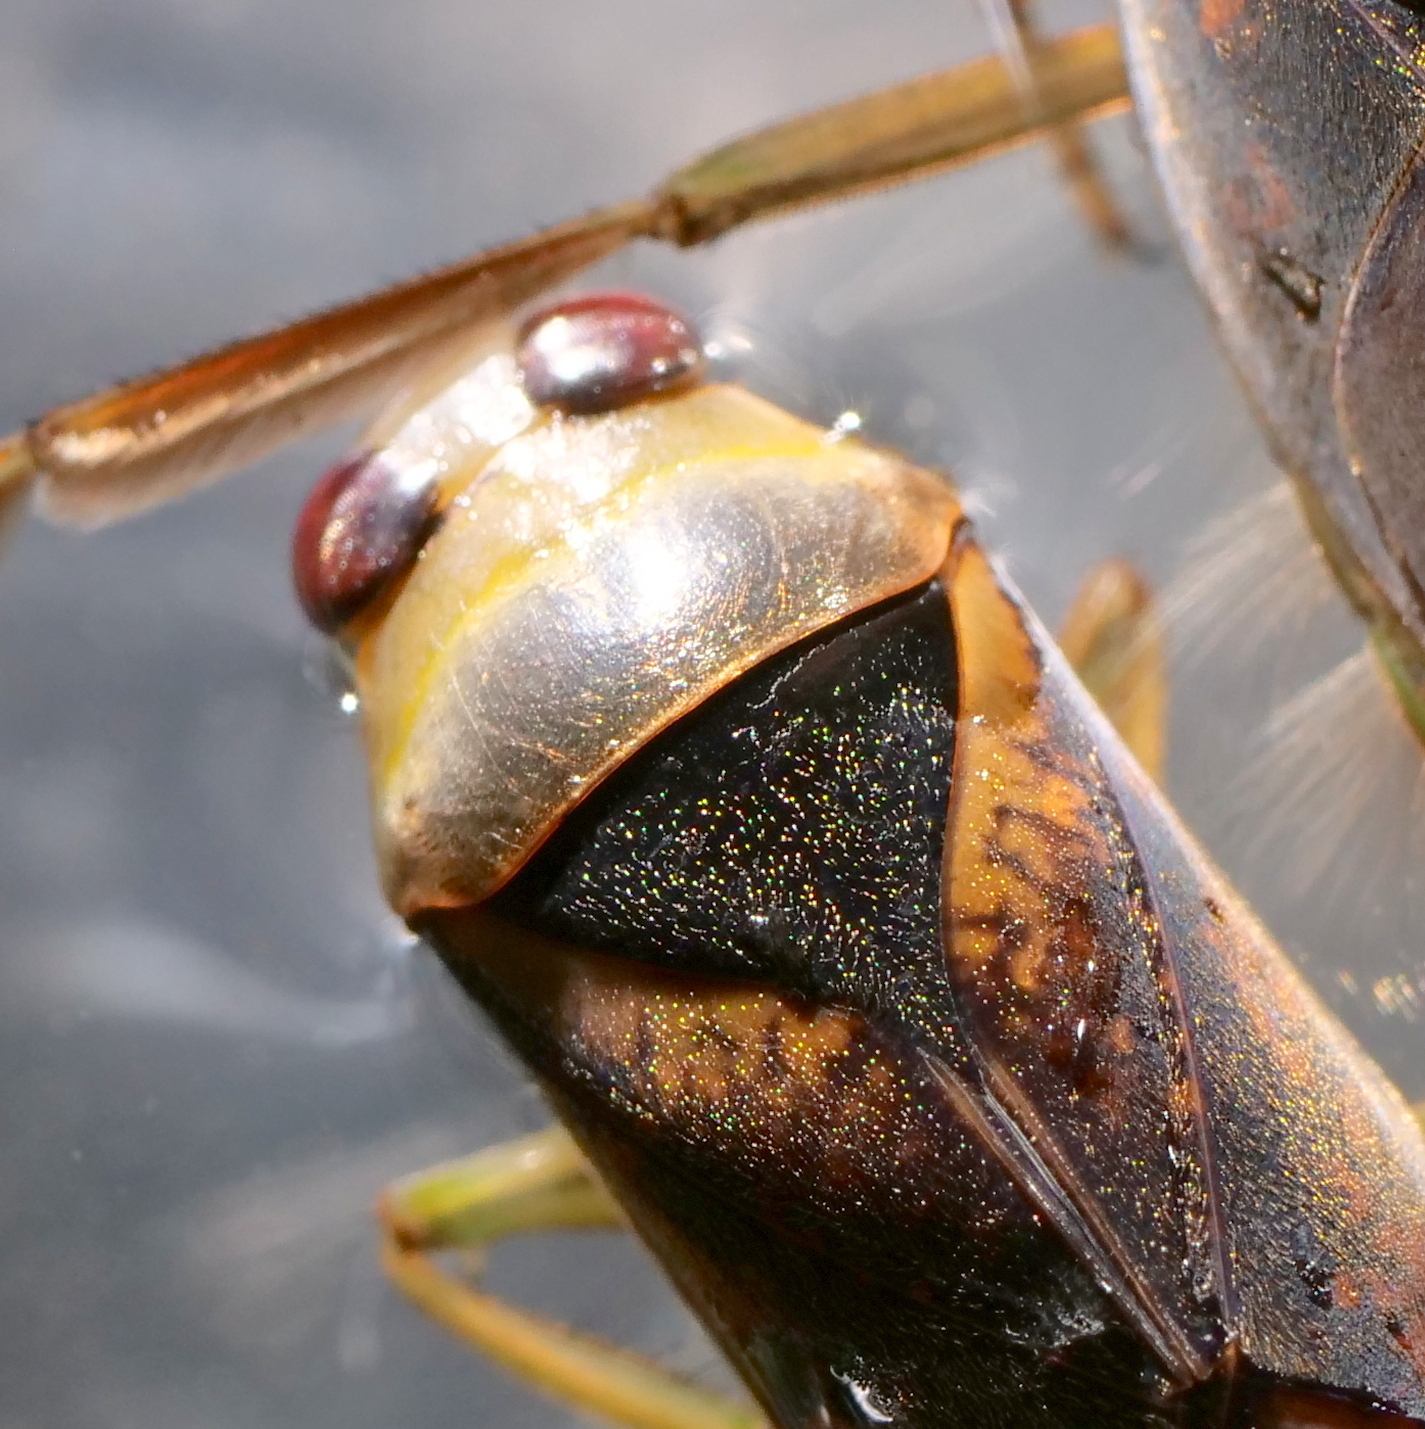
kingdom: Animalia
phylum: Arthropoda
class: Insecta
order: Hemiptera
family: Notonectidae
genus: Notonecta
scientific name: Notonecta maculata
